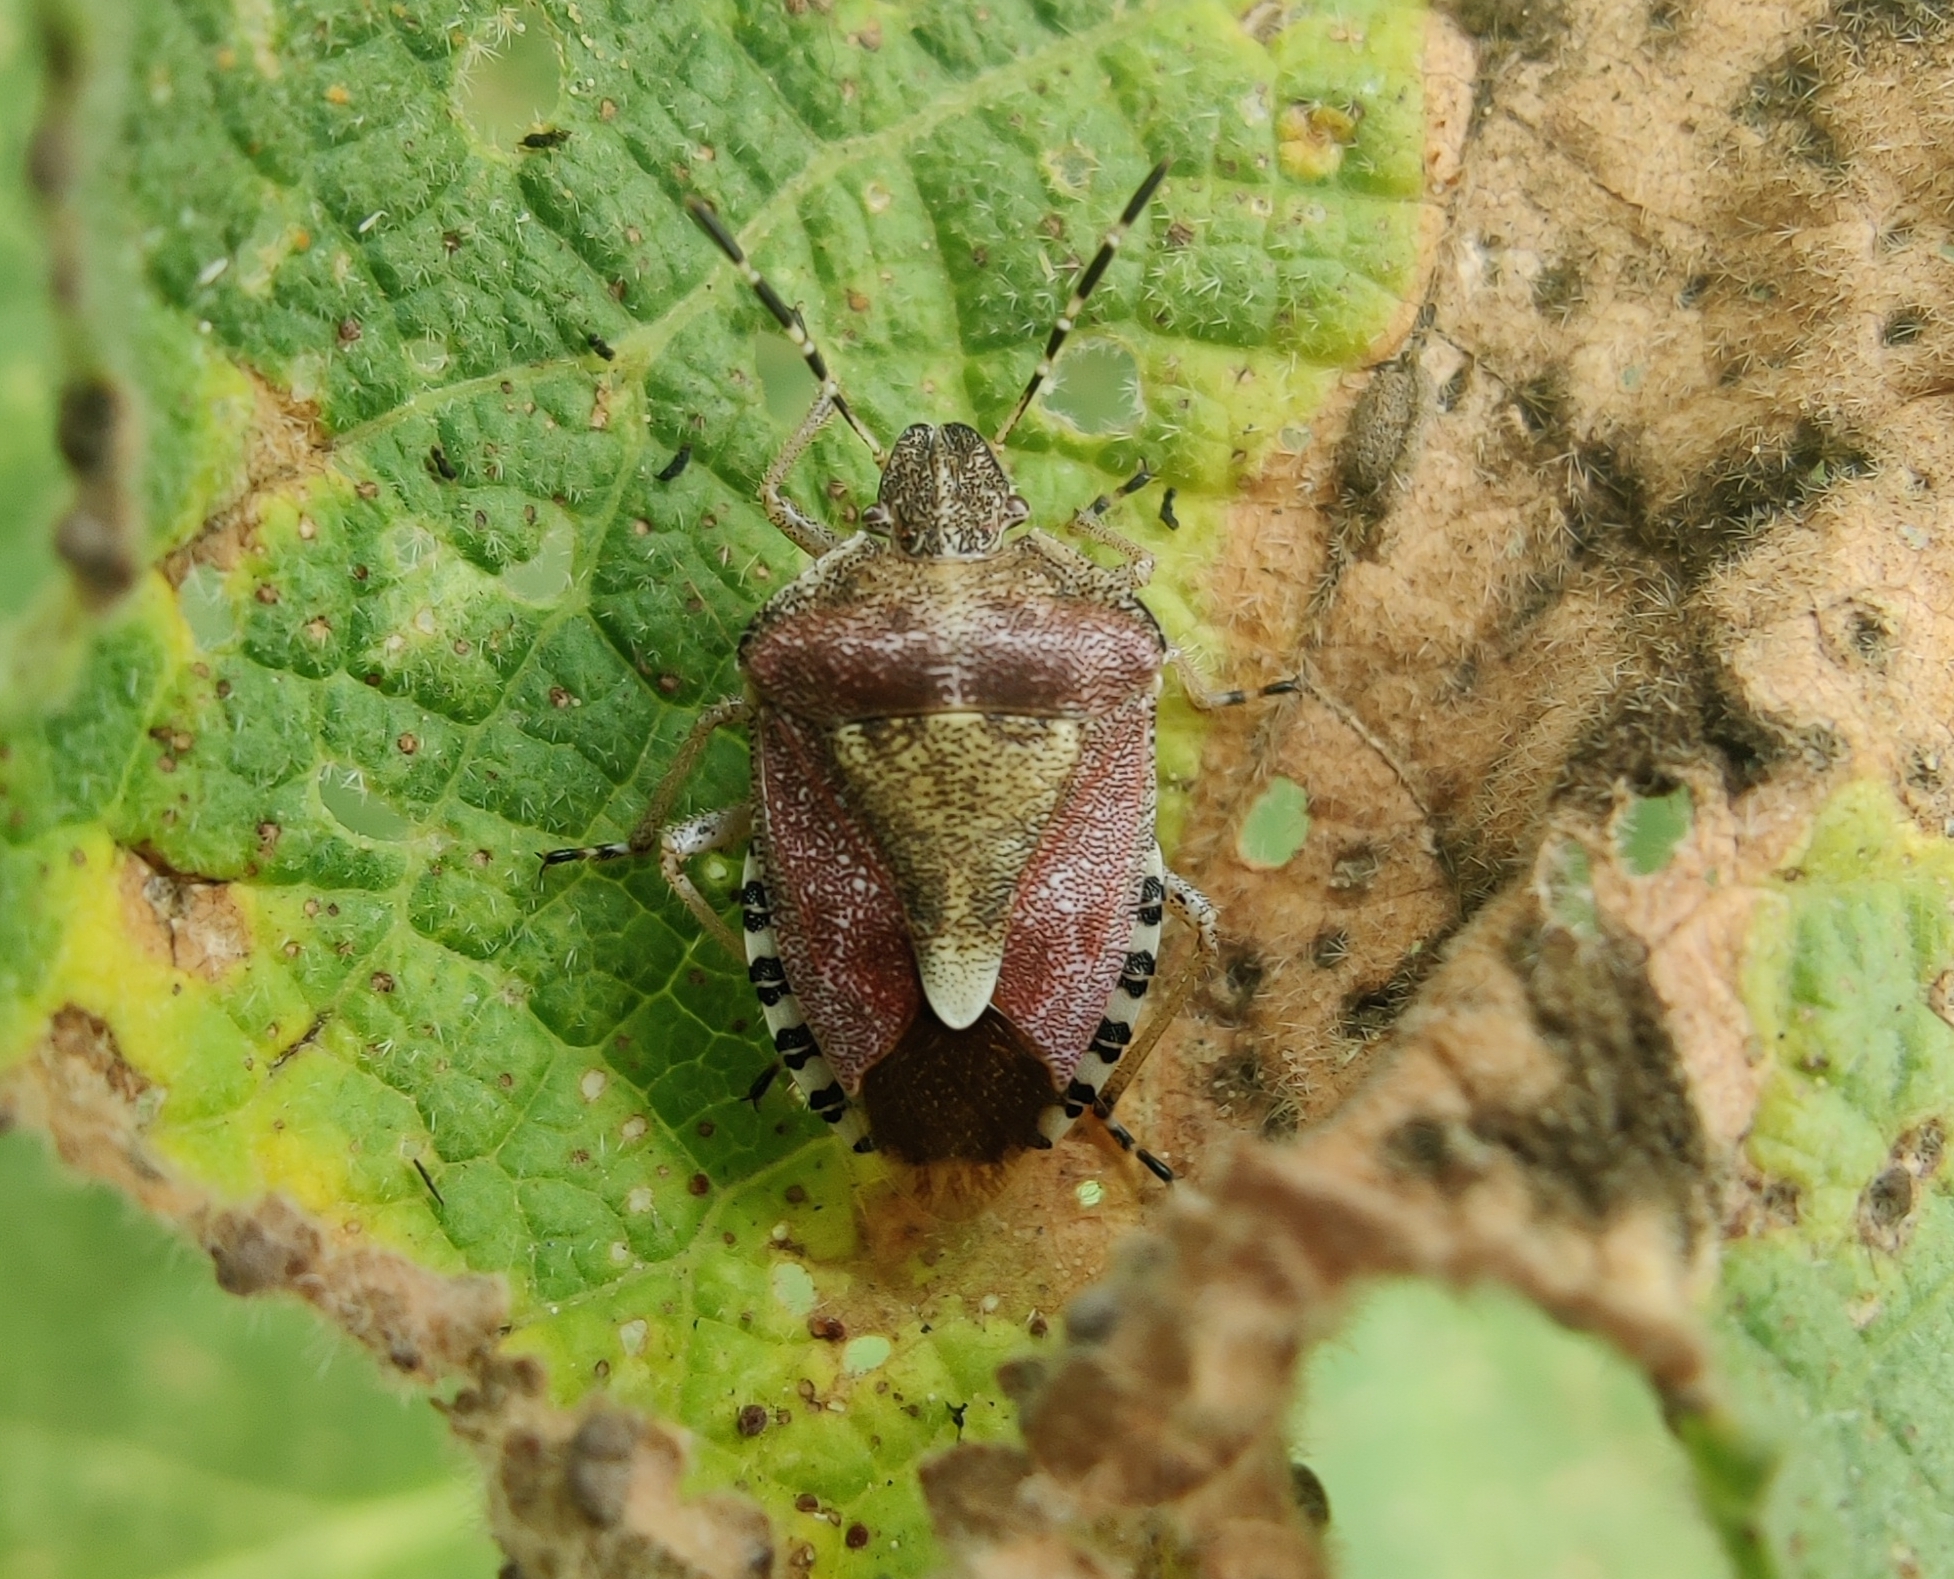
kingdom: Animalia
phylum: Arthropoda
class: Insecta
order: Hemiptera
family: Pentatomidae
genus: Dolycoris
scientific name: Dolycoris baccarum
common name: Sloe bug
